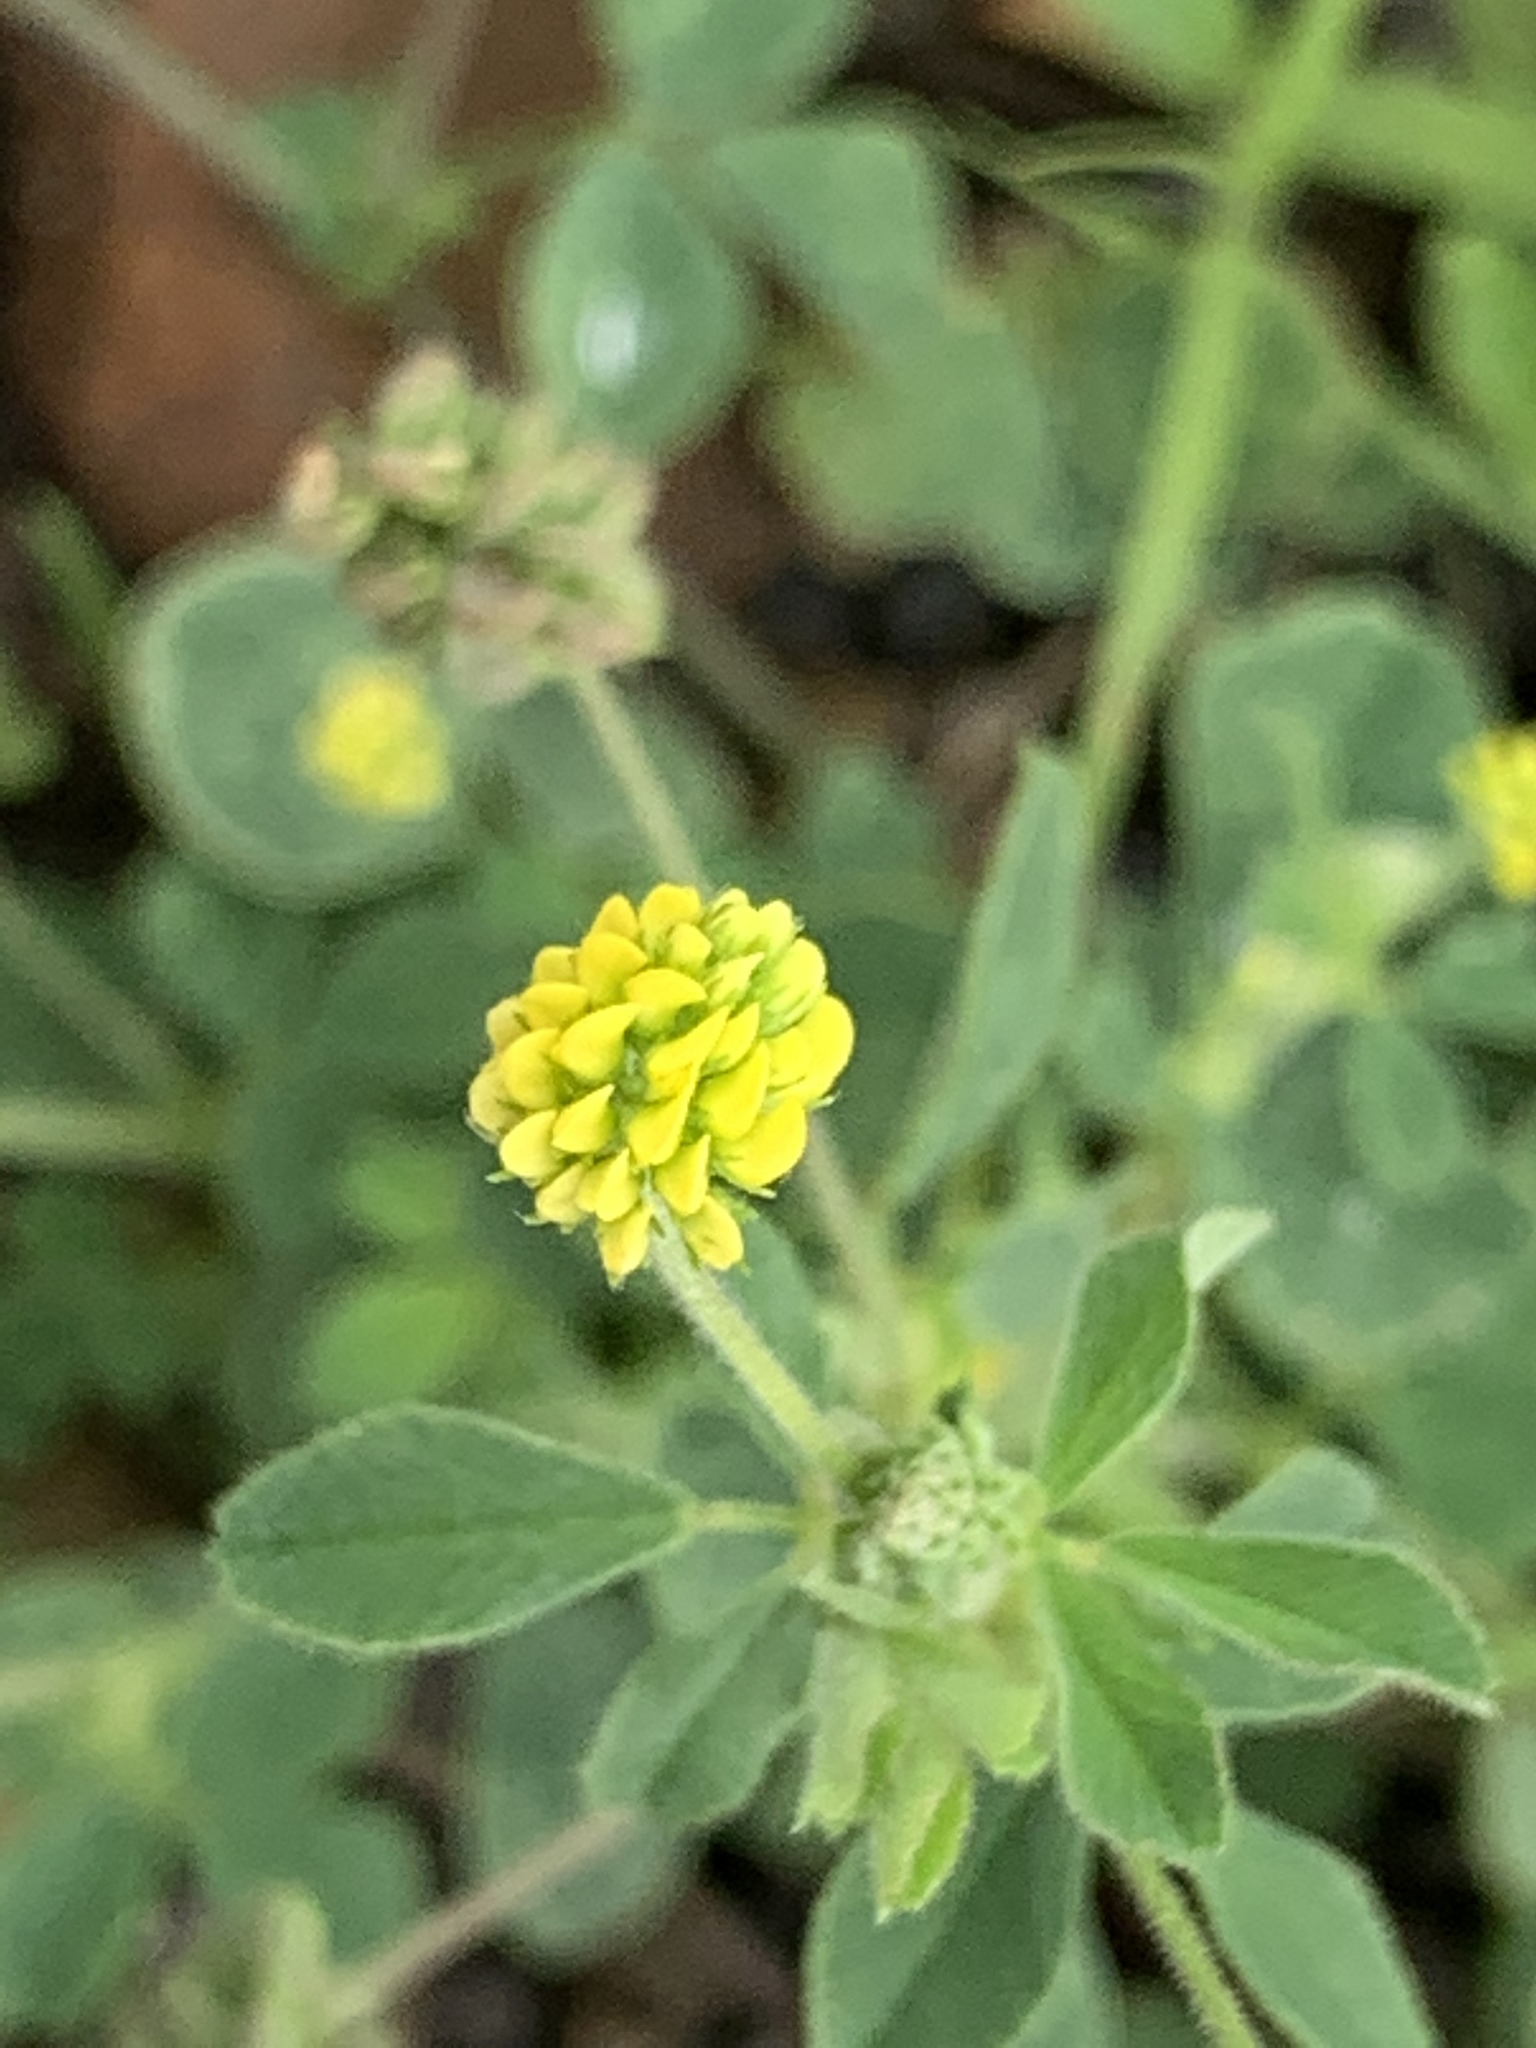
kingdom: Plantae
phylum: Tracheophyta
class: Magnoliopsida
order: Fabales
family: Fabaceae
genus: Medicago
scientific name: Medicago lupulina
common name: Black medick
